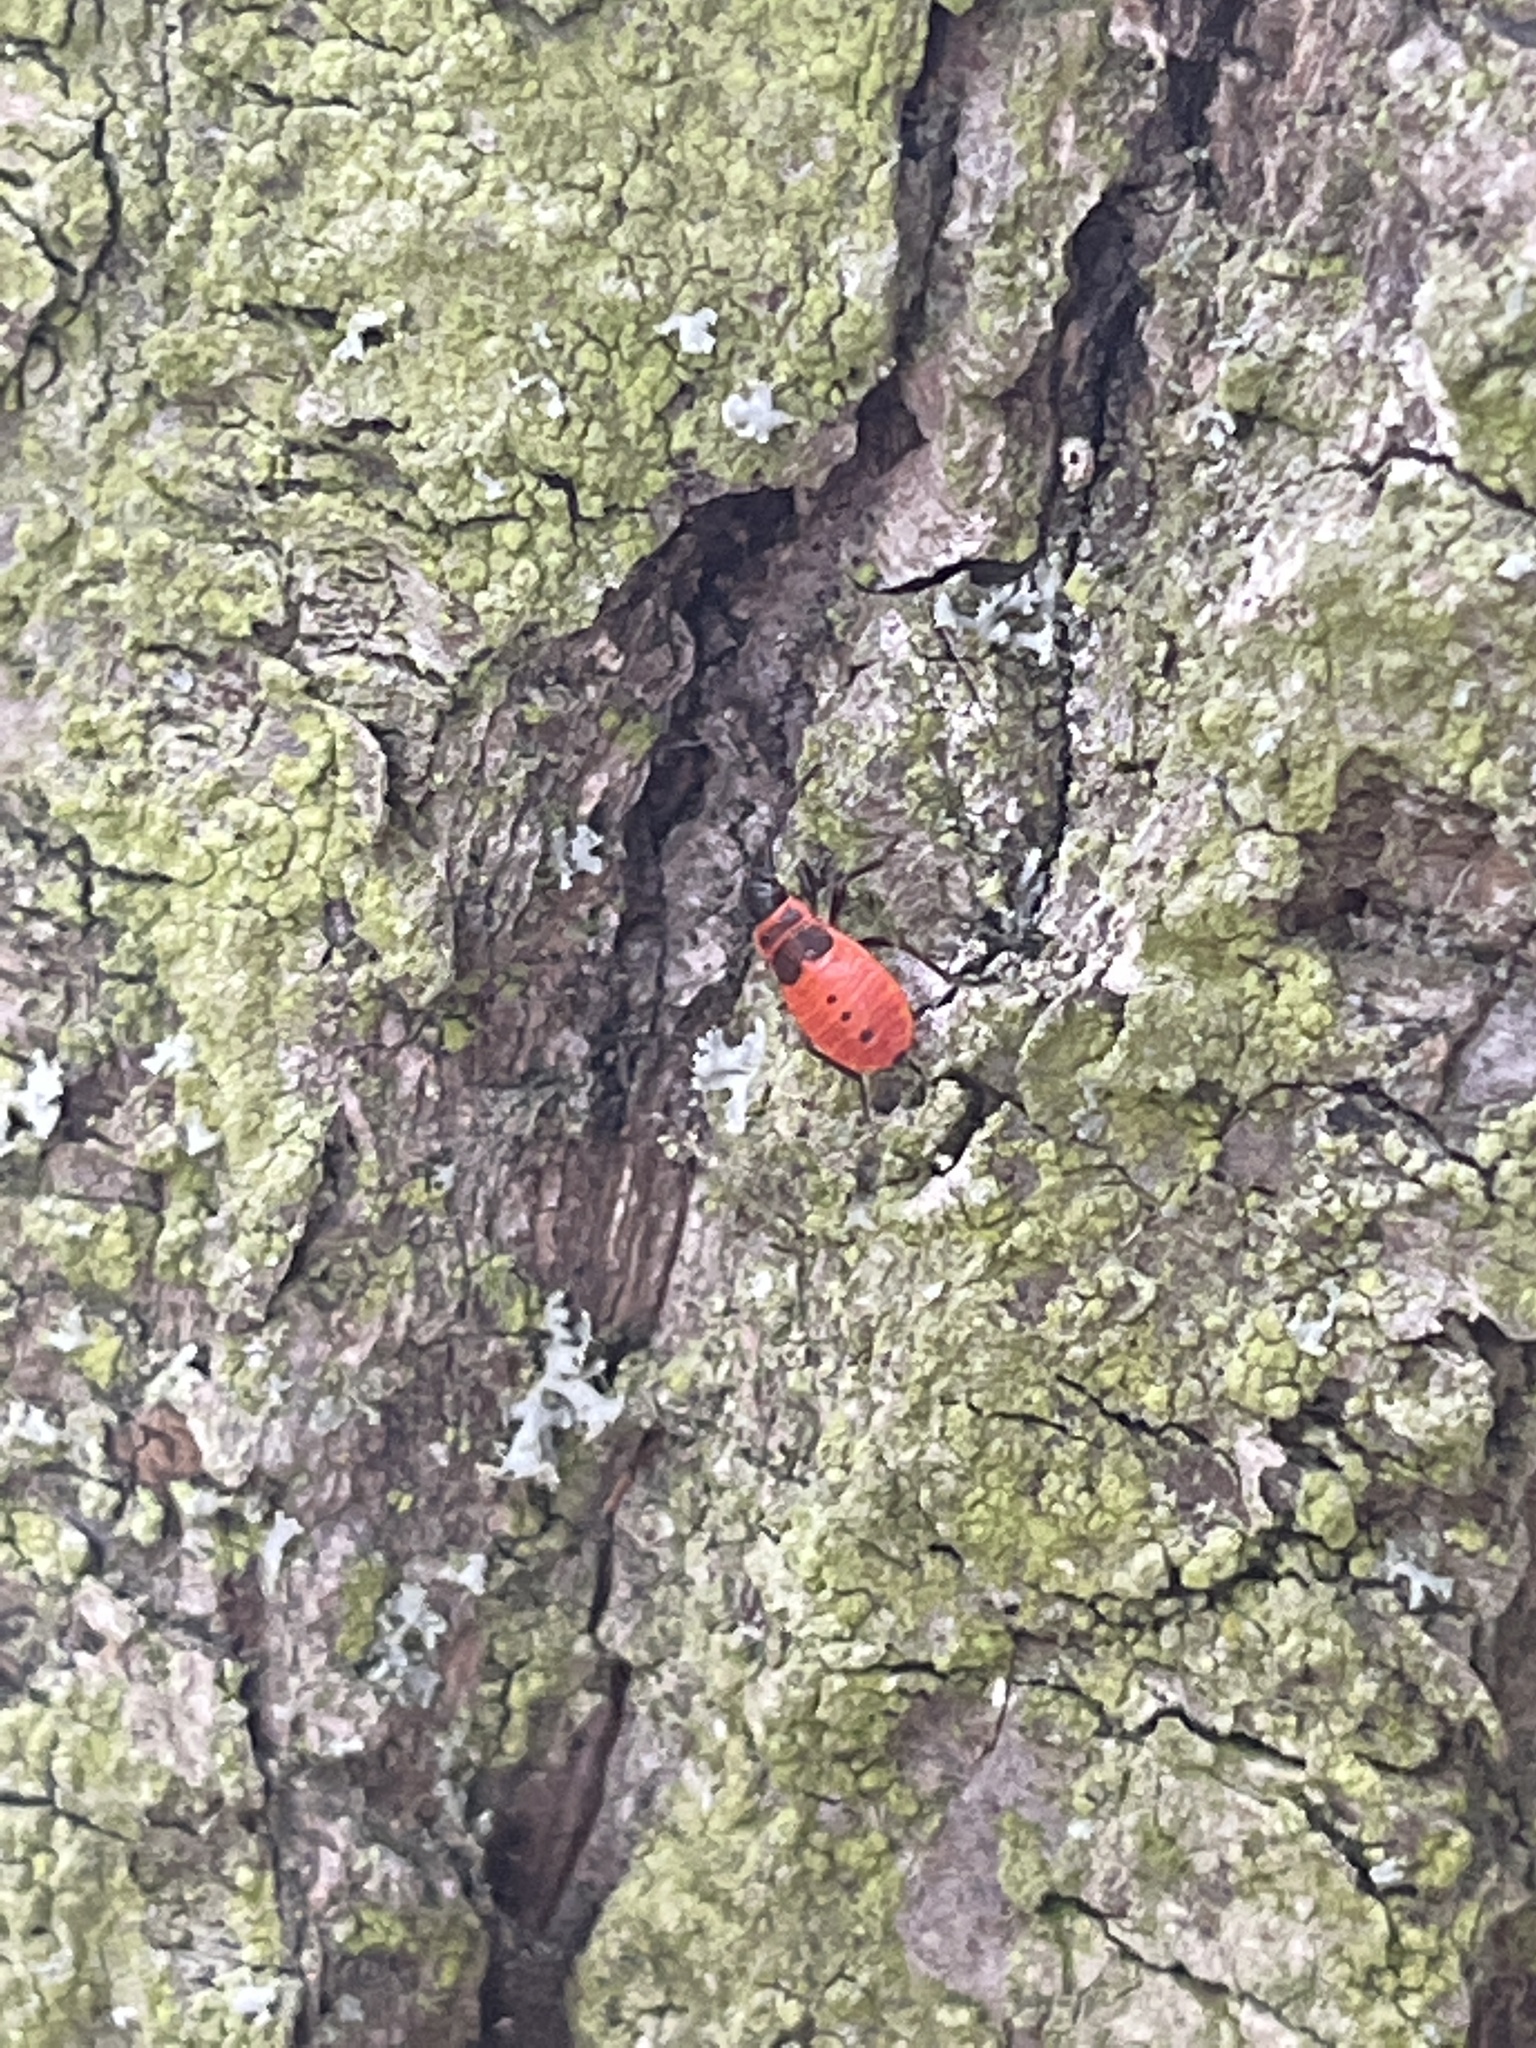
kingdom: Animalia
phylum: Arthropoda
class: Insecta
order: Hemiptera
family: Pyrrhocoridae
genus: Pyrrhocoris
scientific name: Pyrrhocoris apterus
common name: Firebug
